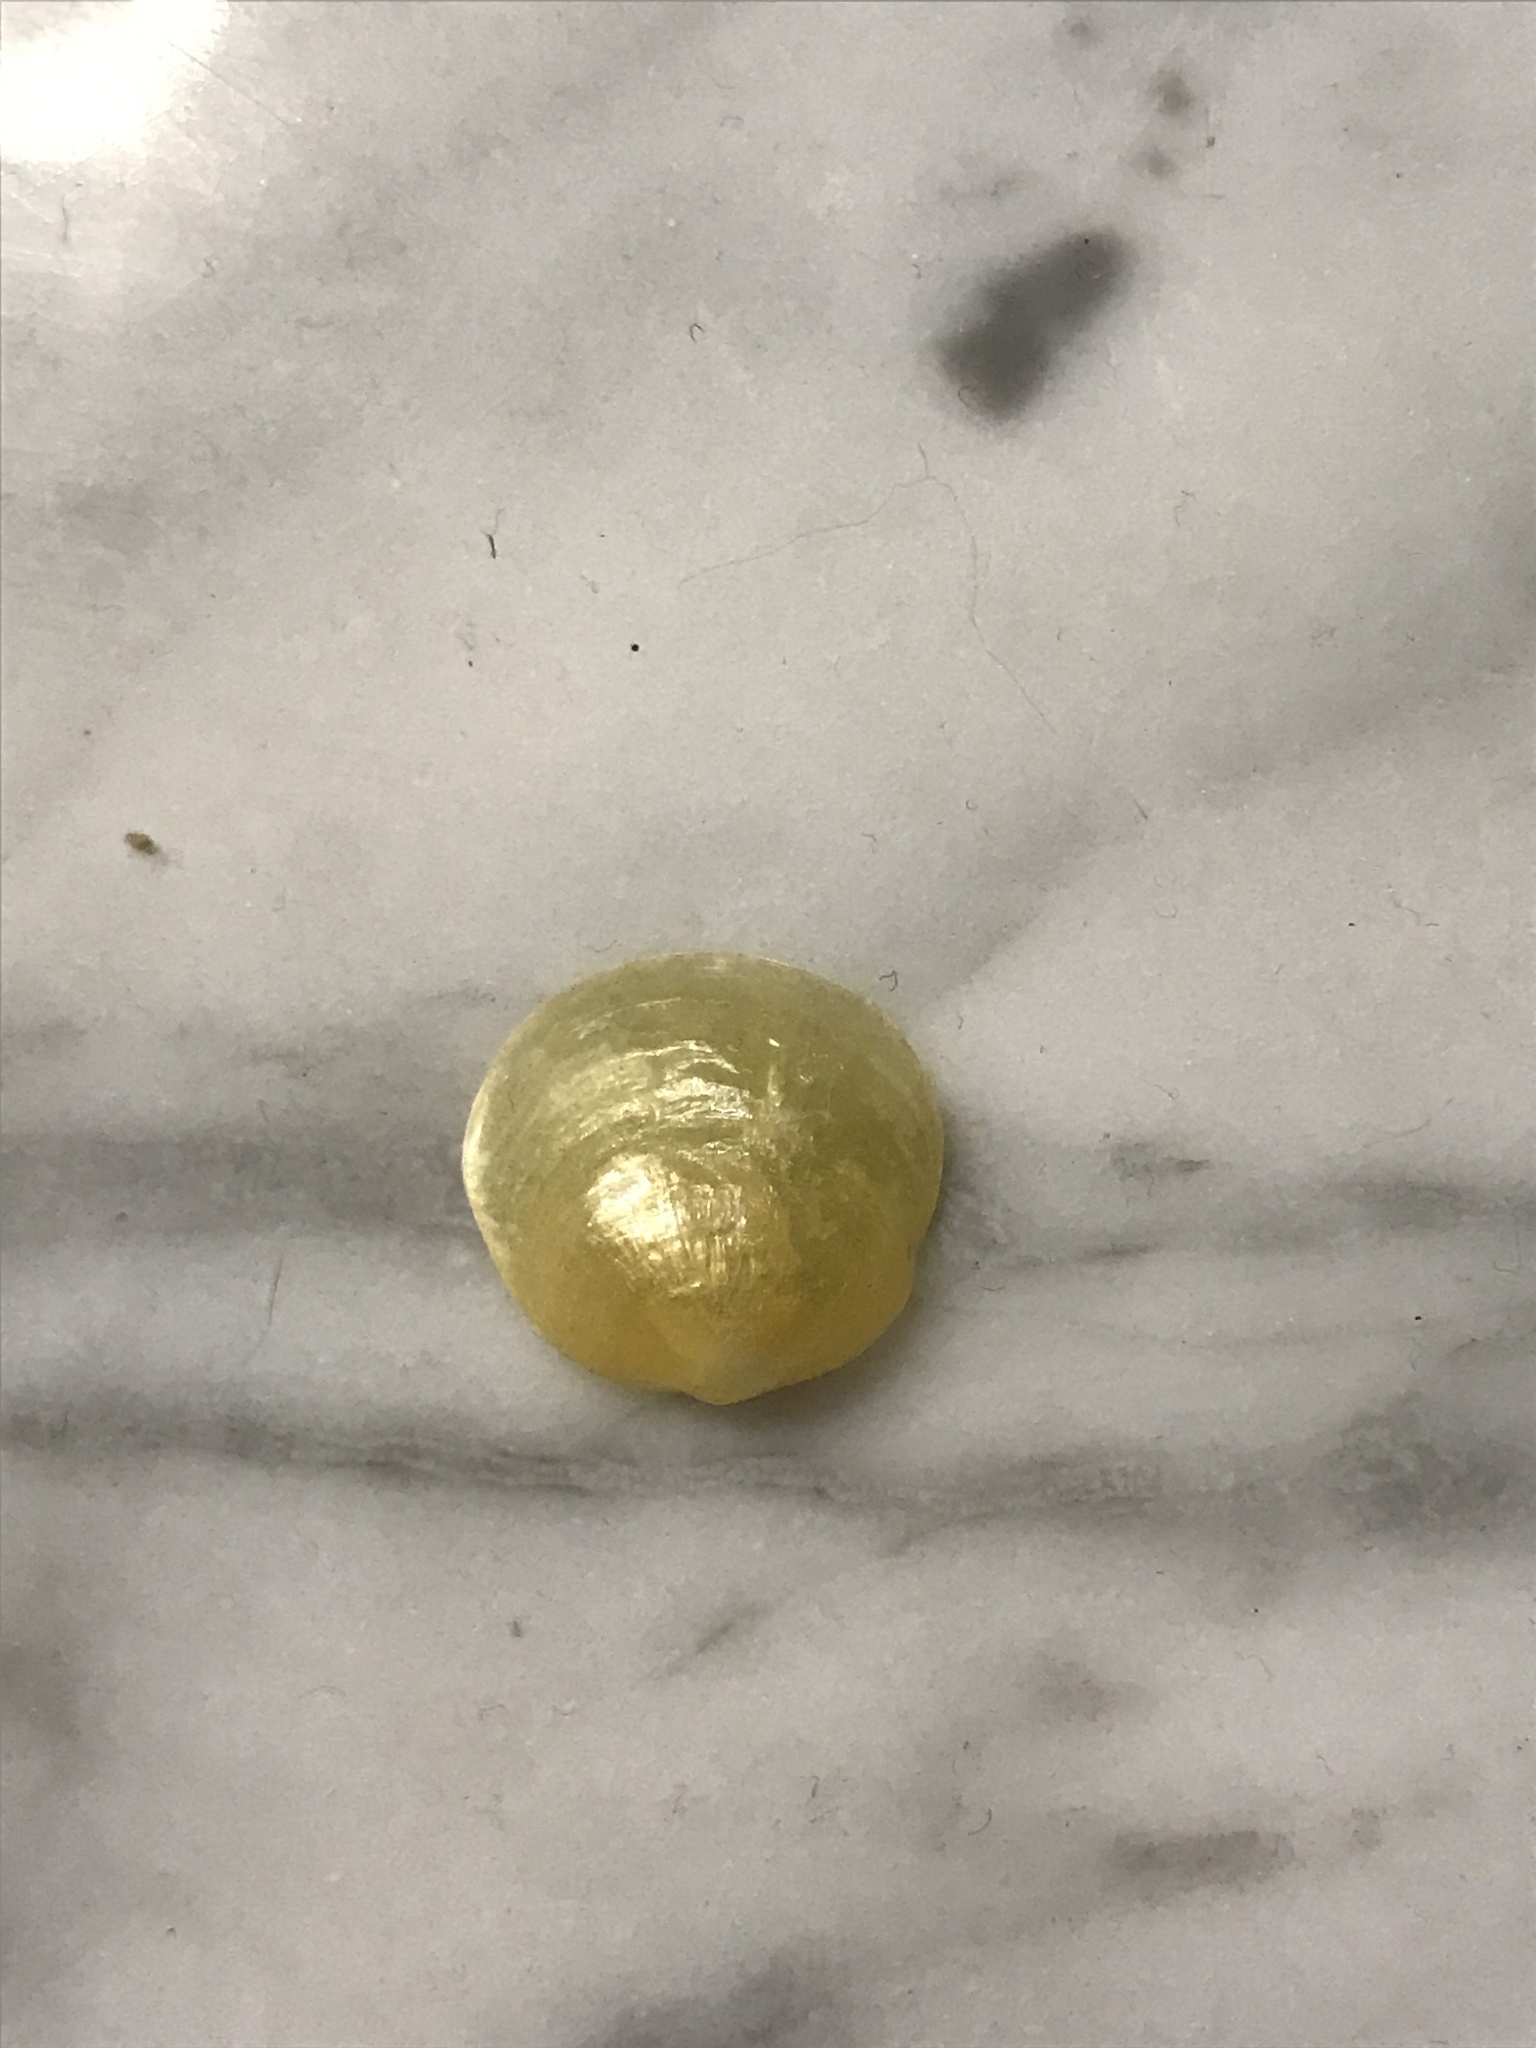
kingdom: Animalia
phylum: Mollusca
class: Bivalvia
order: Pectinida
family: Anomiidae
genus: Anomia
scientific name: Anomia simplex
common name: Common jingle shell
